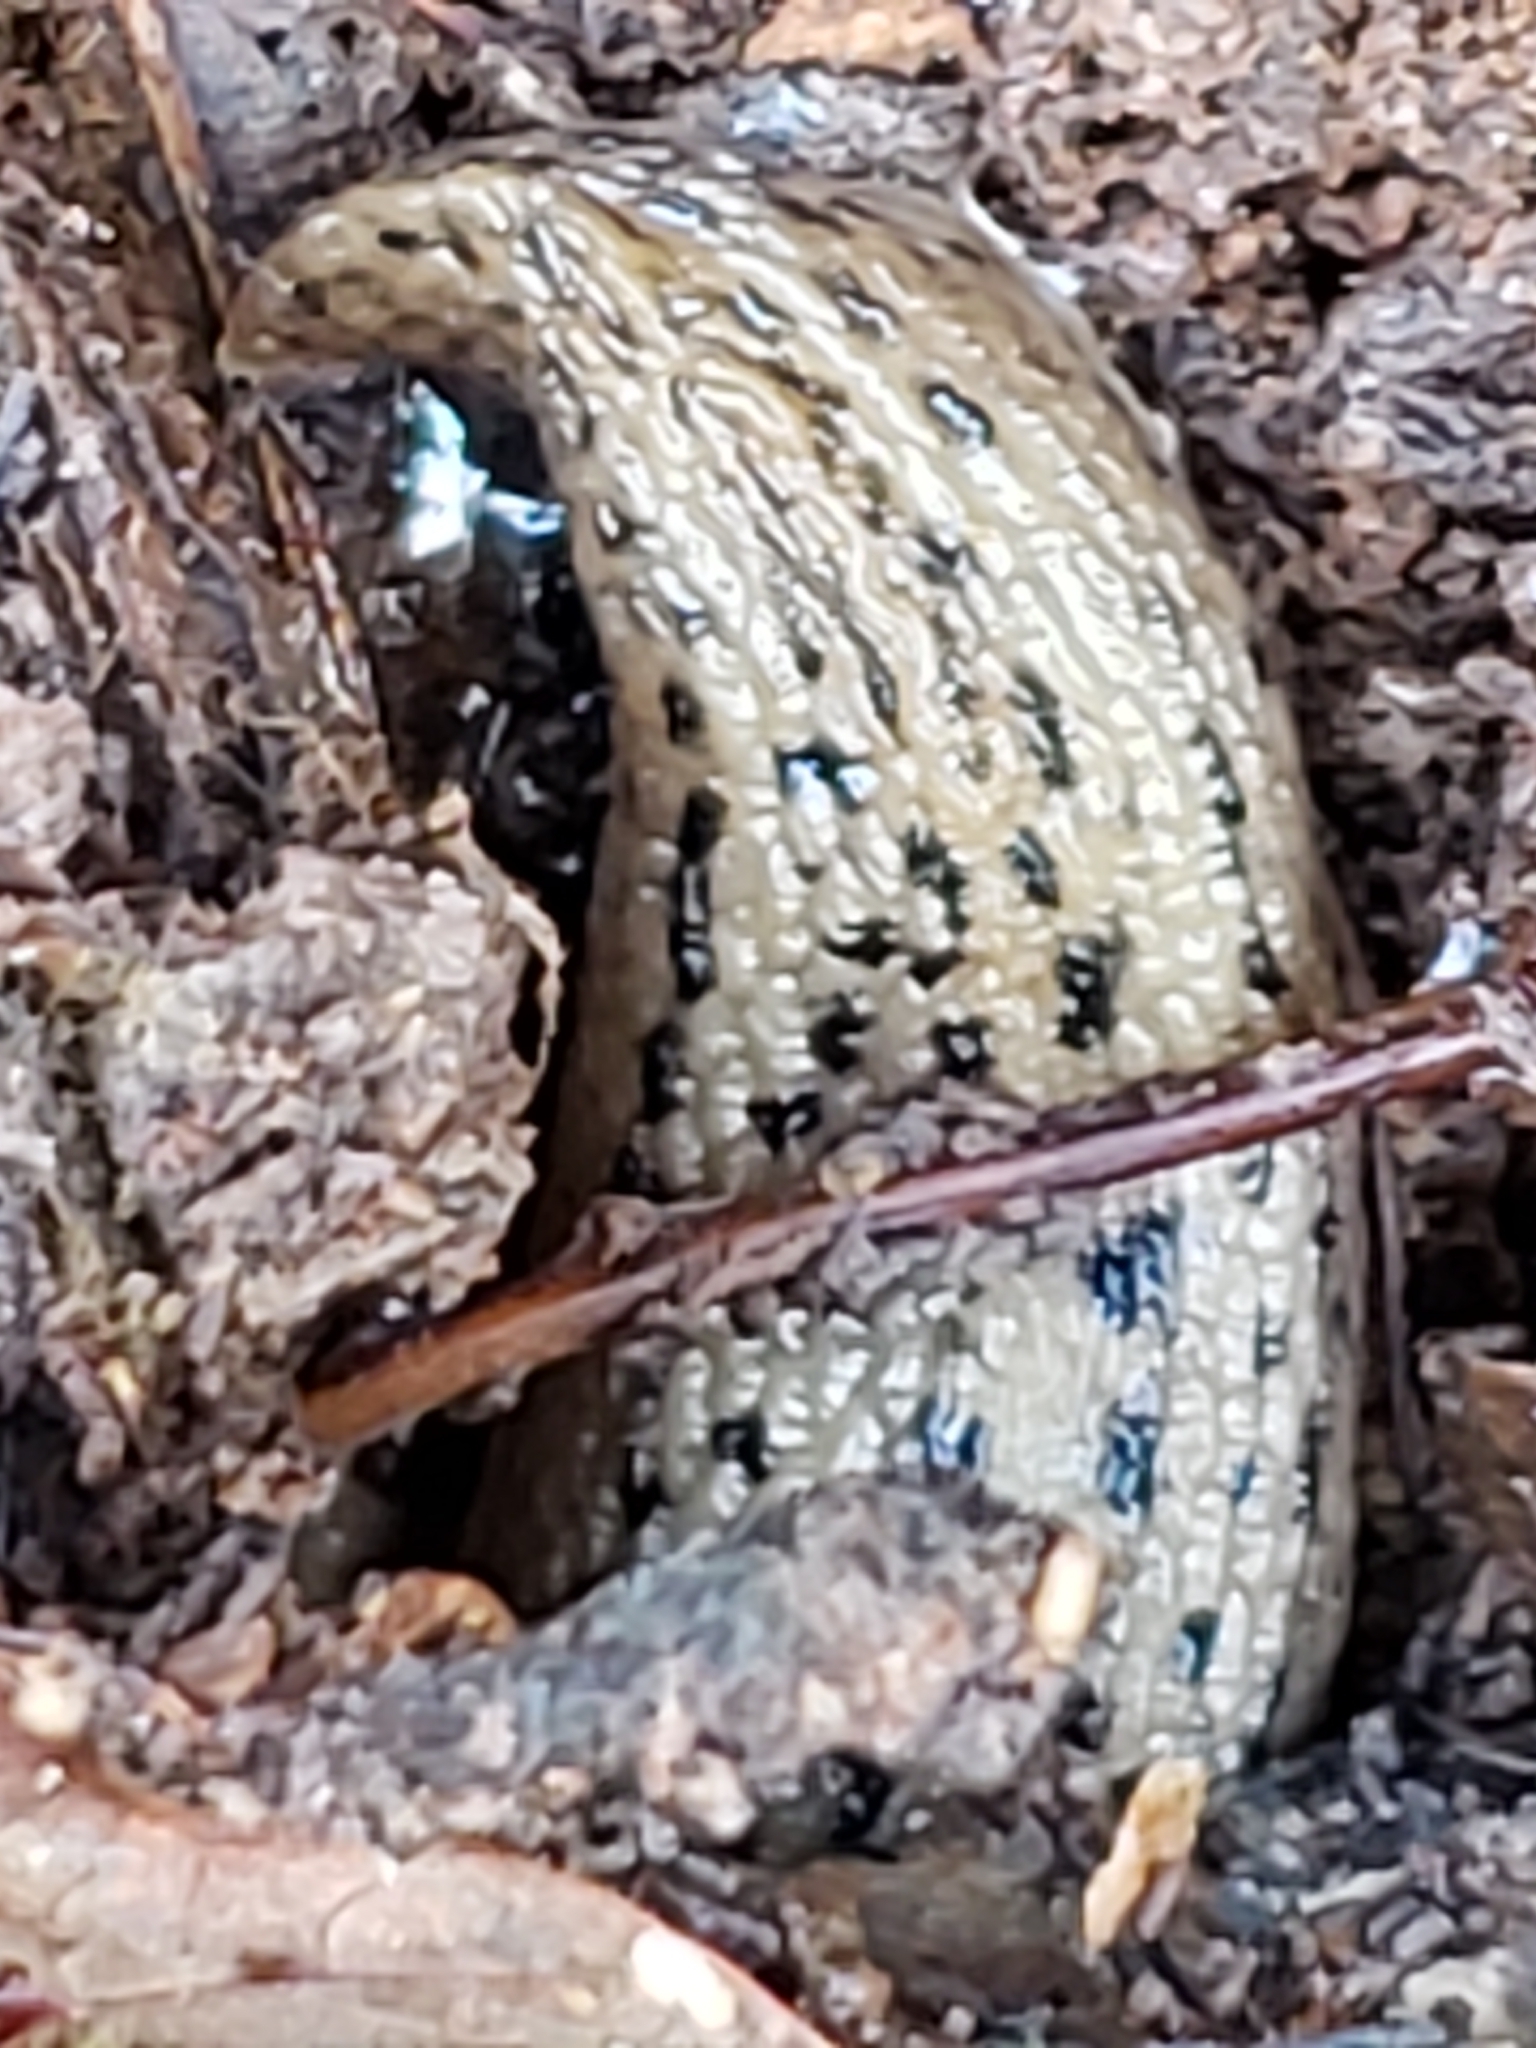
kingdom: Animalia
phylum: Mollusca
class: Gastropoda
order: Stylommatophora
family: Limacidae
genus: Limax
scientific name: Limax maximus
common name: Great grey slug
